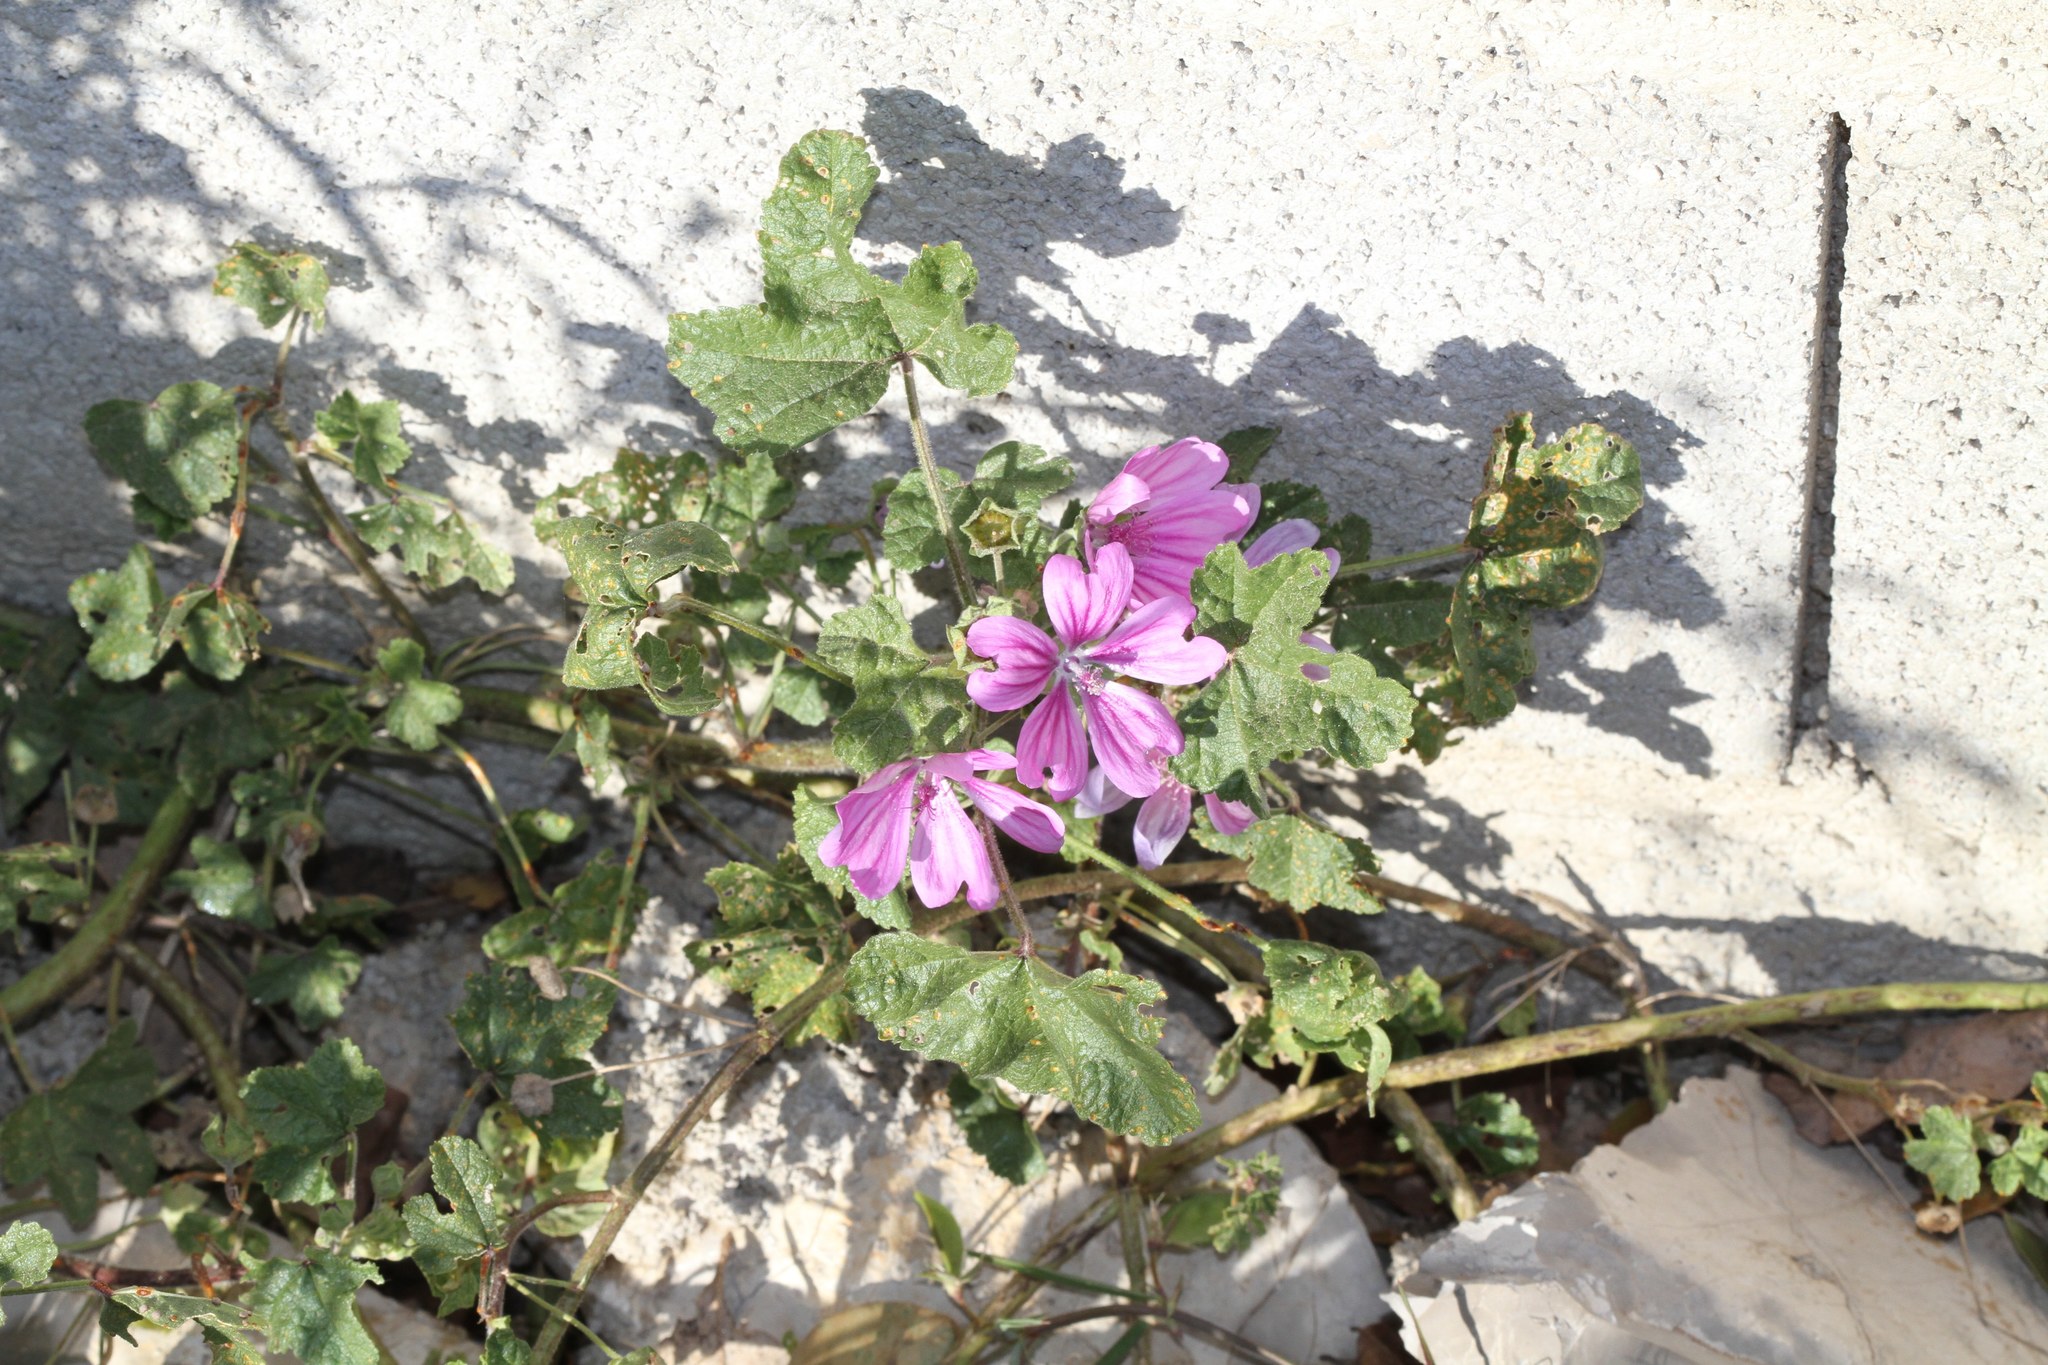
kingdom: Plantae
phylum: Tracheophyta
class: Magnoliopsida
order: Malvales
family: Malvaceae
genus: Malva
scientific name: Malva sylvestris
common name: Common mallow
